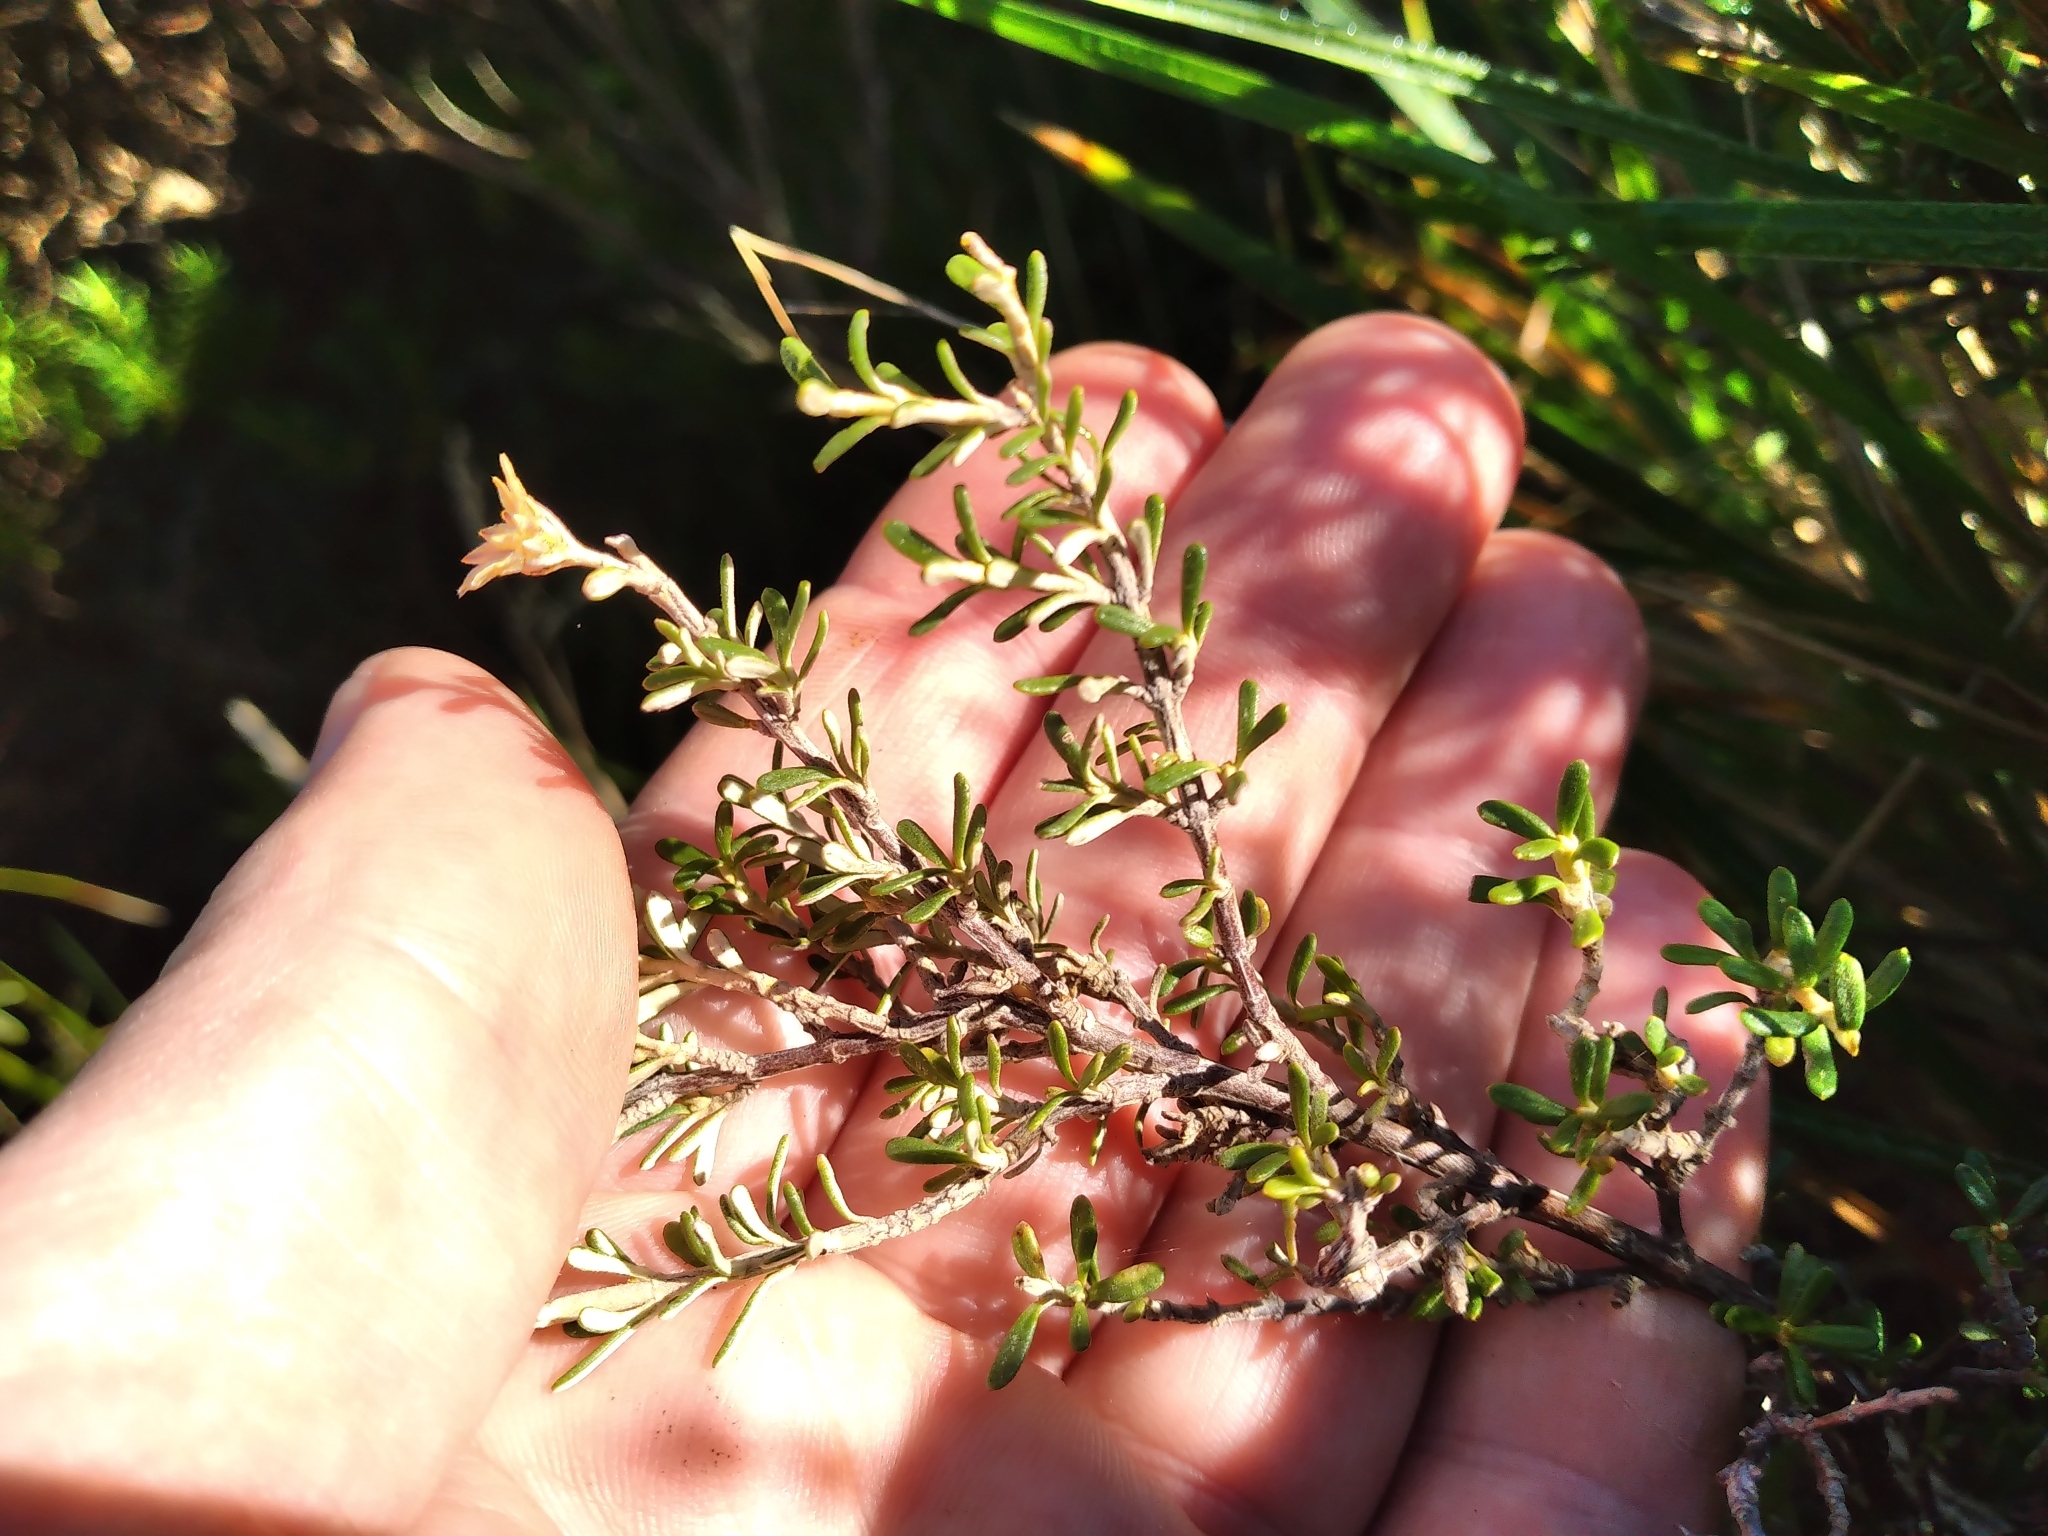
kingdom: Plantae
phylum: Tracheophyta
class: Magnoliopsida
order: Asterales
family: Asteraceae
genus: Olearia
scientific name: Olearia solandri
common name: Coastal daisybush
